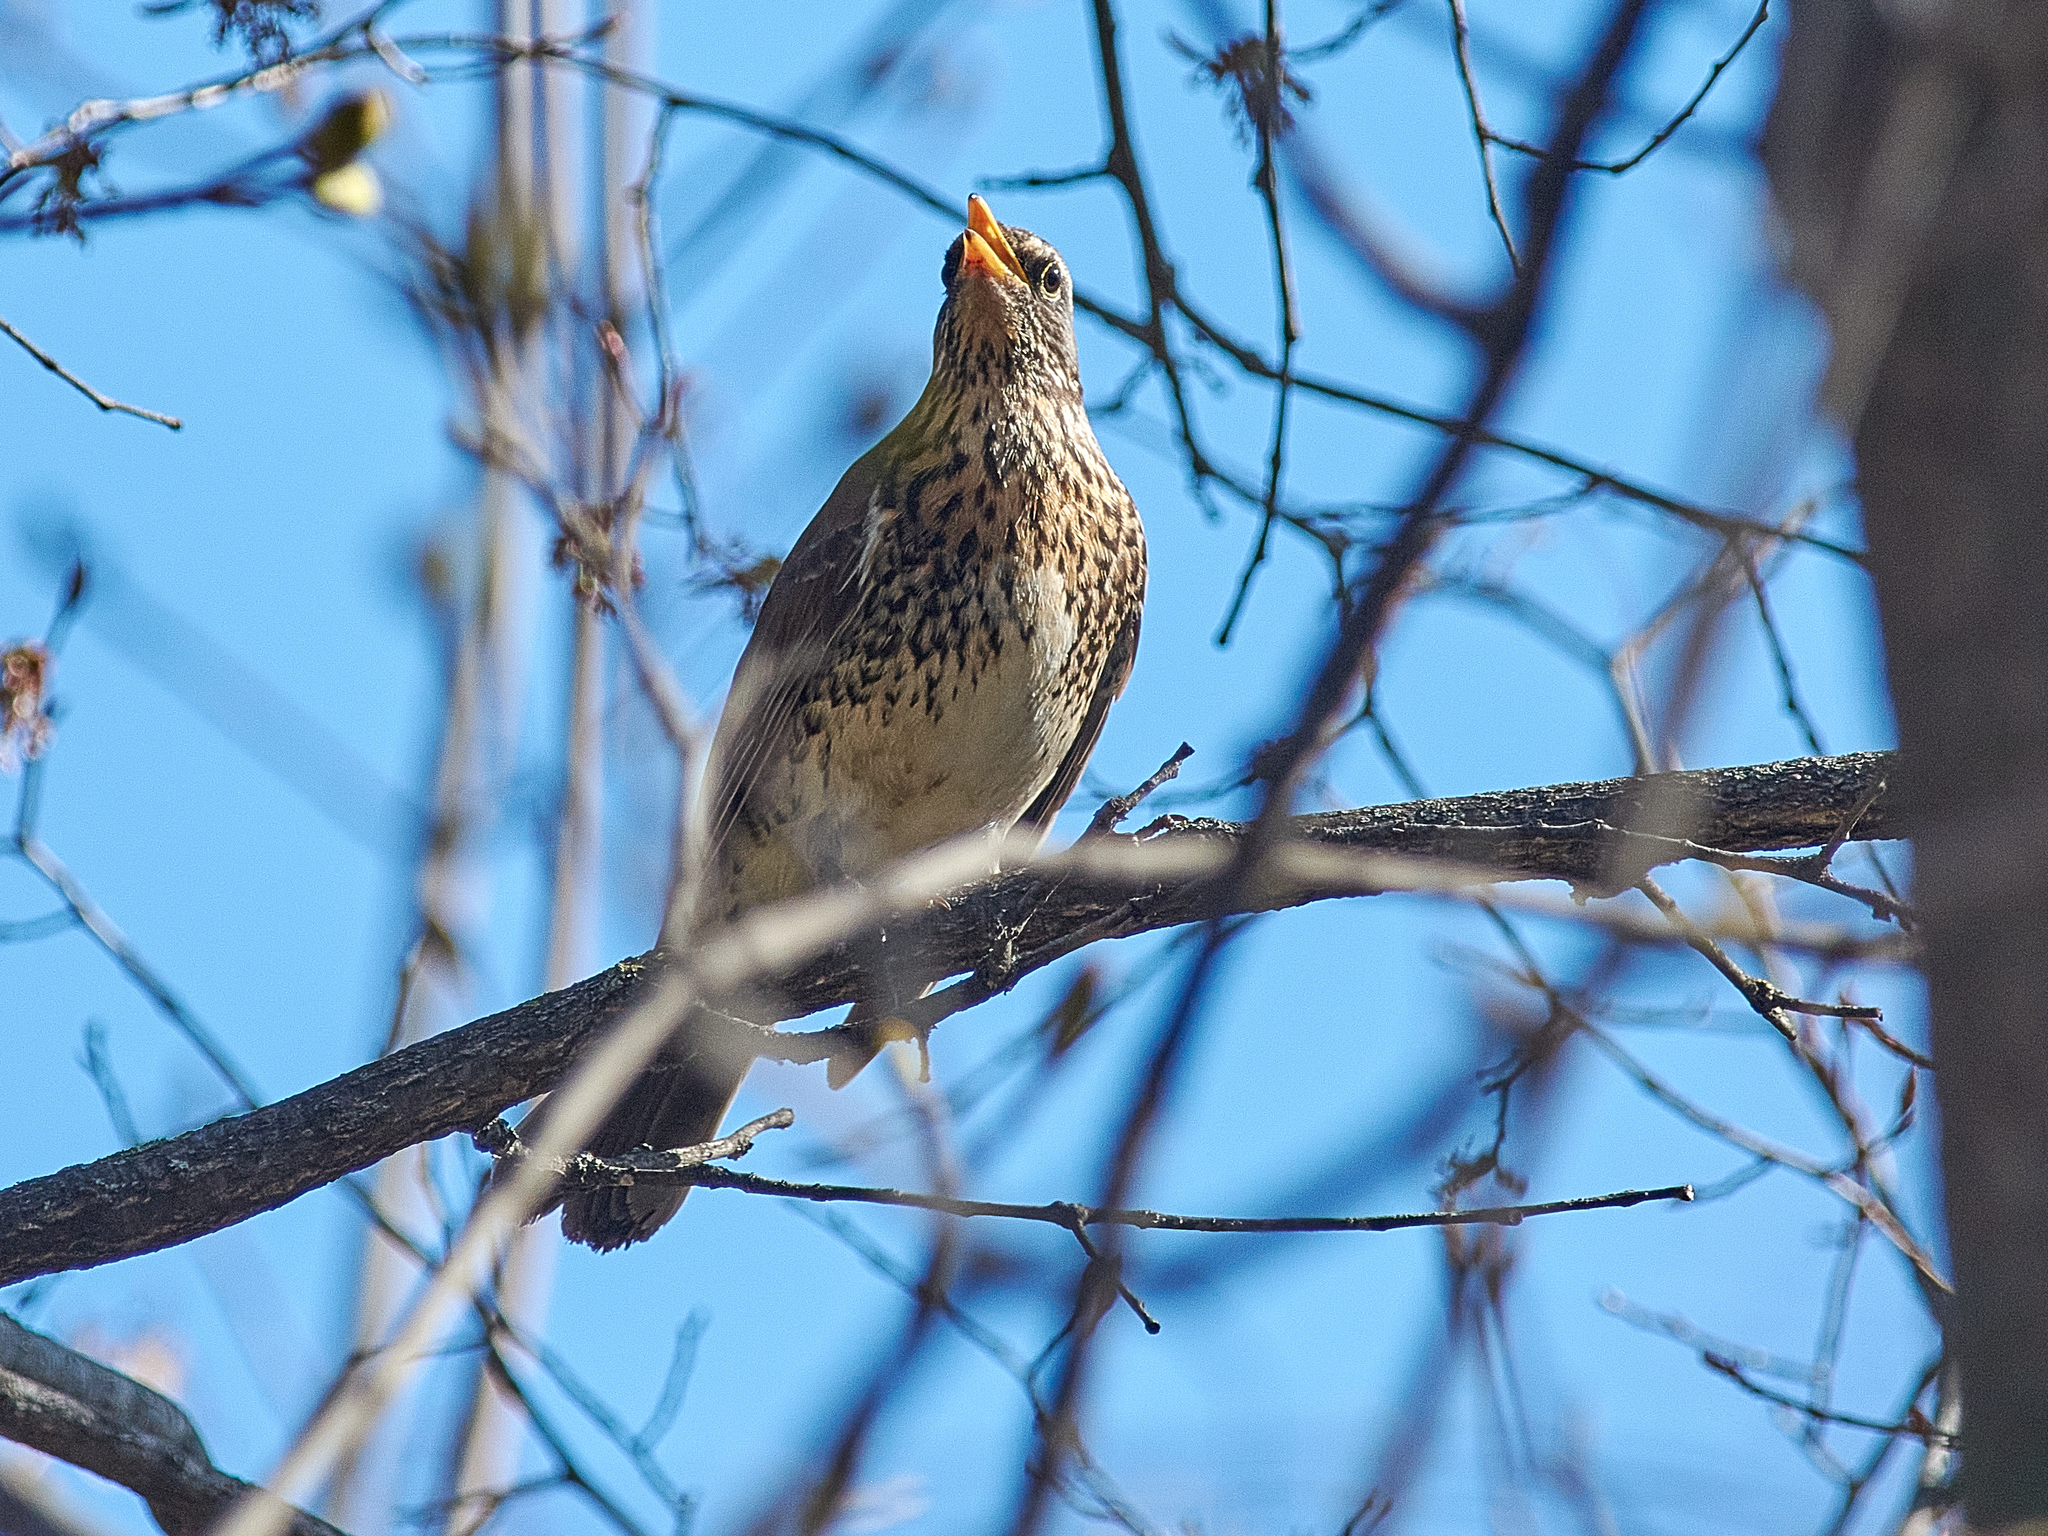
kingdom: Animalia
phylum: Chordata
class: Aves
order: Passeriformes
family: Turdidae
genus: Turdus
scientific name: Turdus pilaris
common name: Fieldfare
